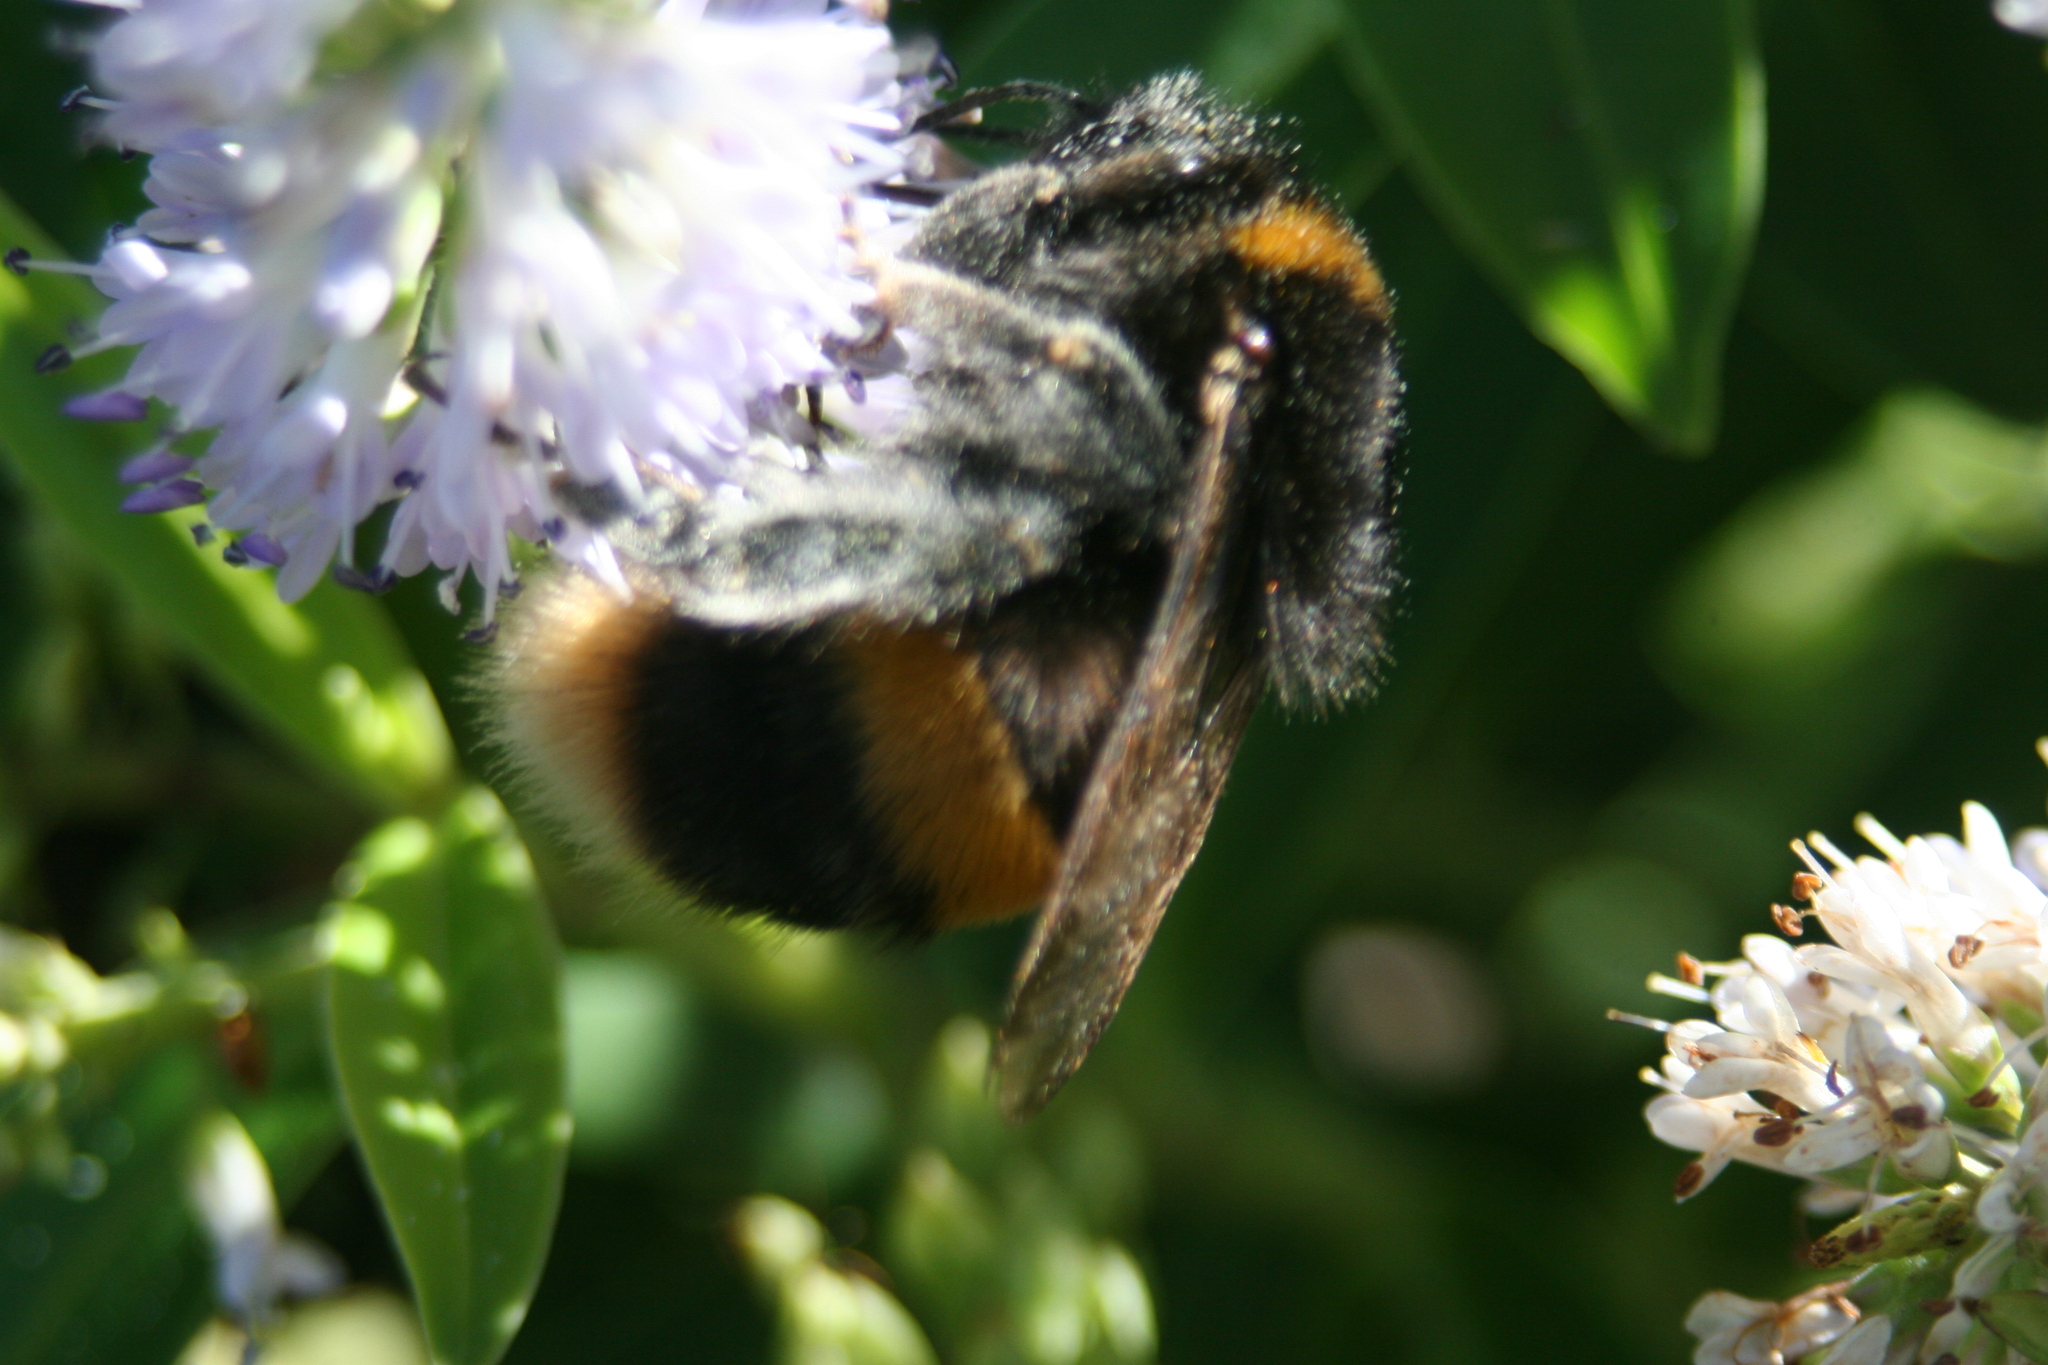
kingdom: Animalia
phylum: Arthropoda
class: Insecta
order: Hymenoptera
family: Apidae
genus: Bombus
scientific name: Bombus terrestris
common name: Buff-tailed bumblebee
